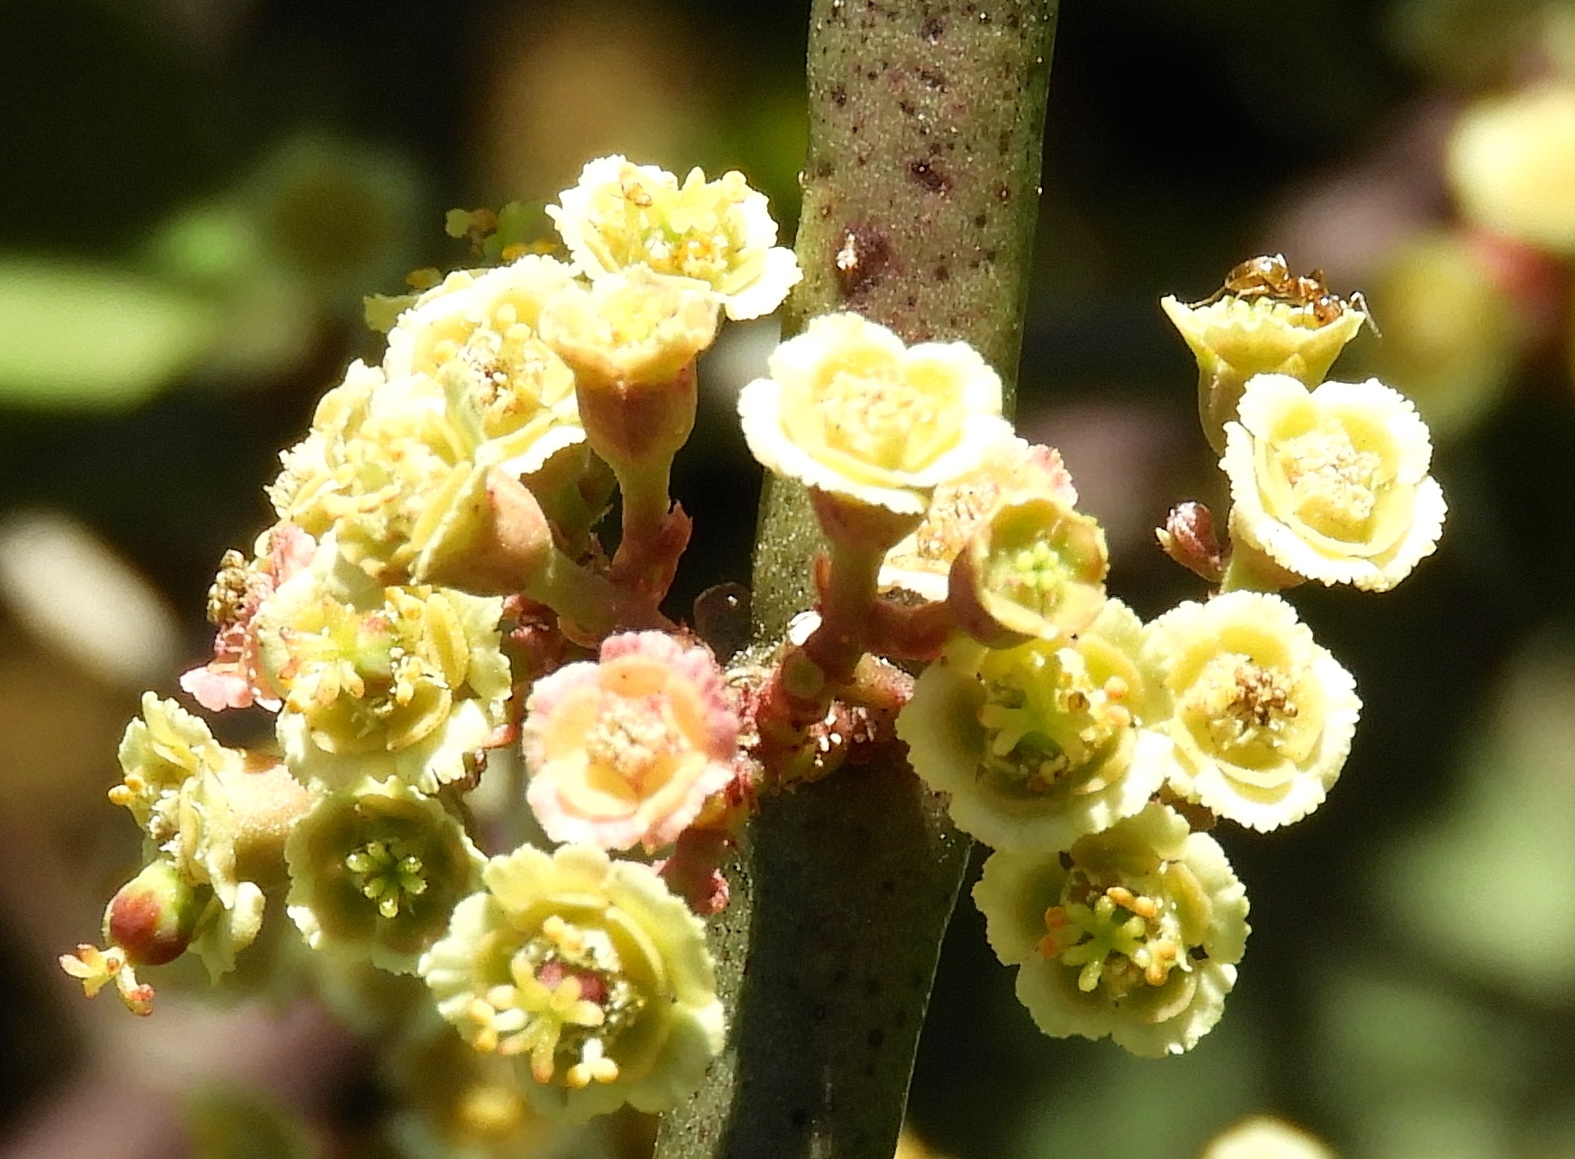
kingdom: Plantae
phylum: Tracheophyta
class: Magnoliopsida
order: Malpighiales
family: Euphorbiaceae
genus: Euphorbia
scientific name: Euphorbia colletioides
